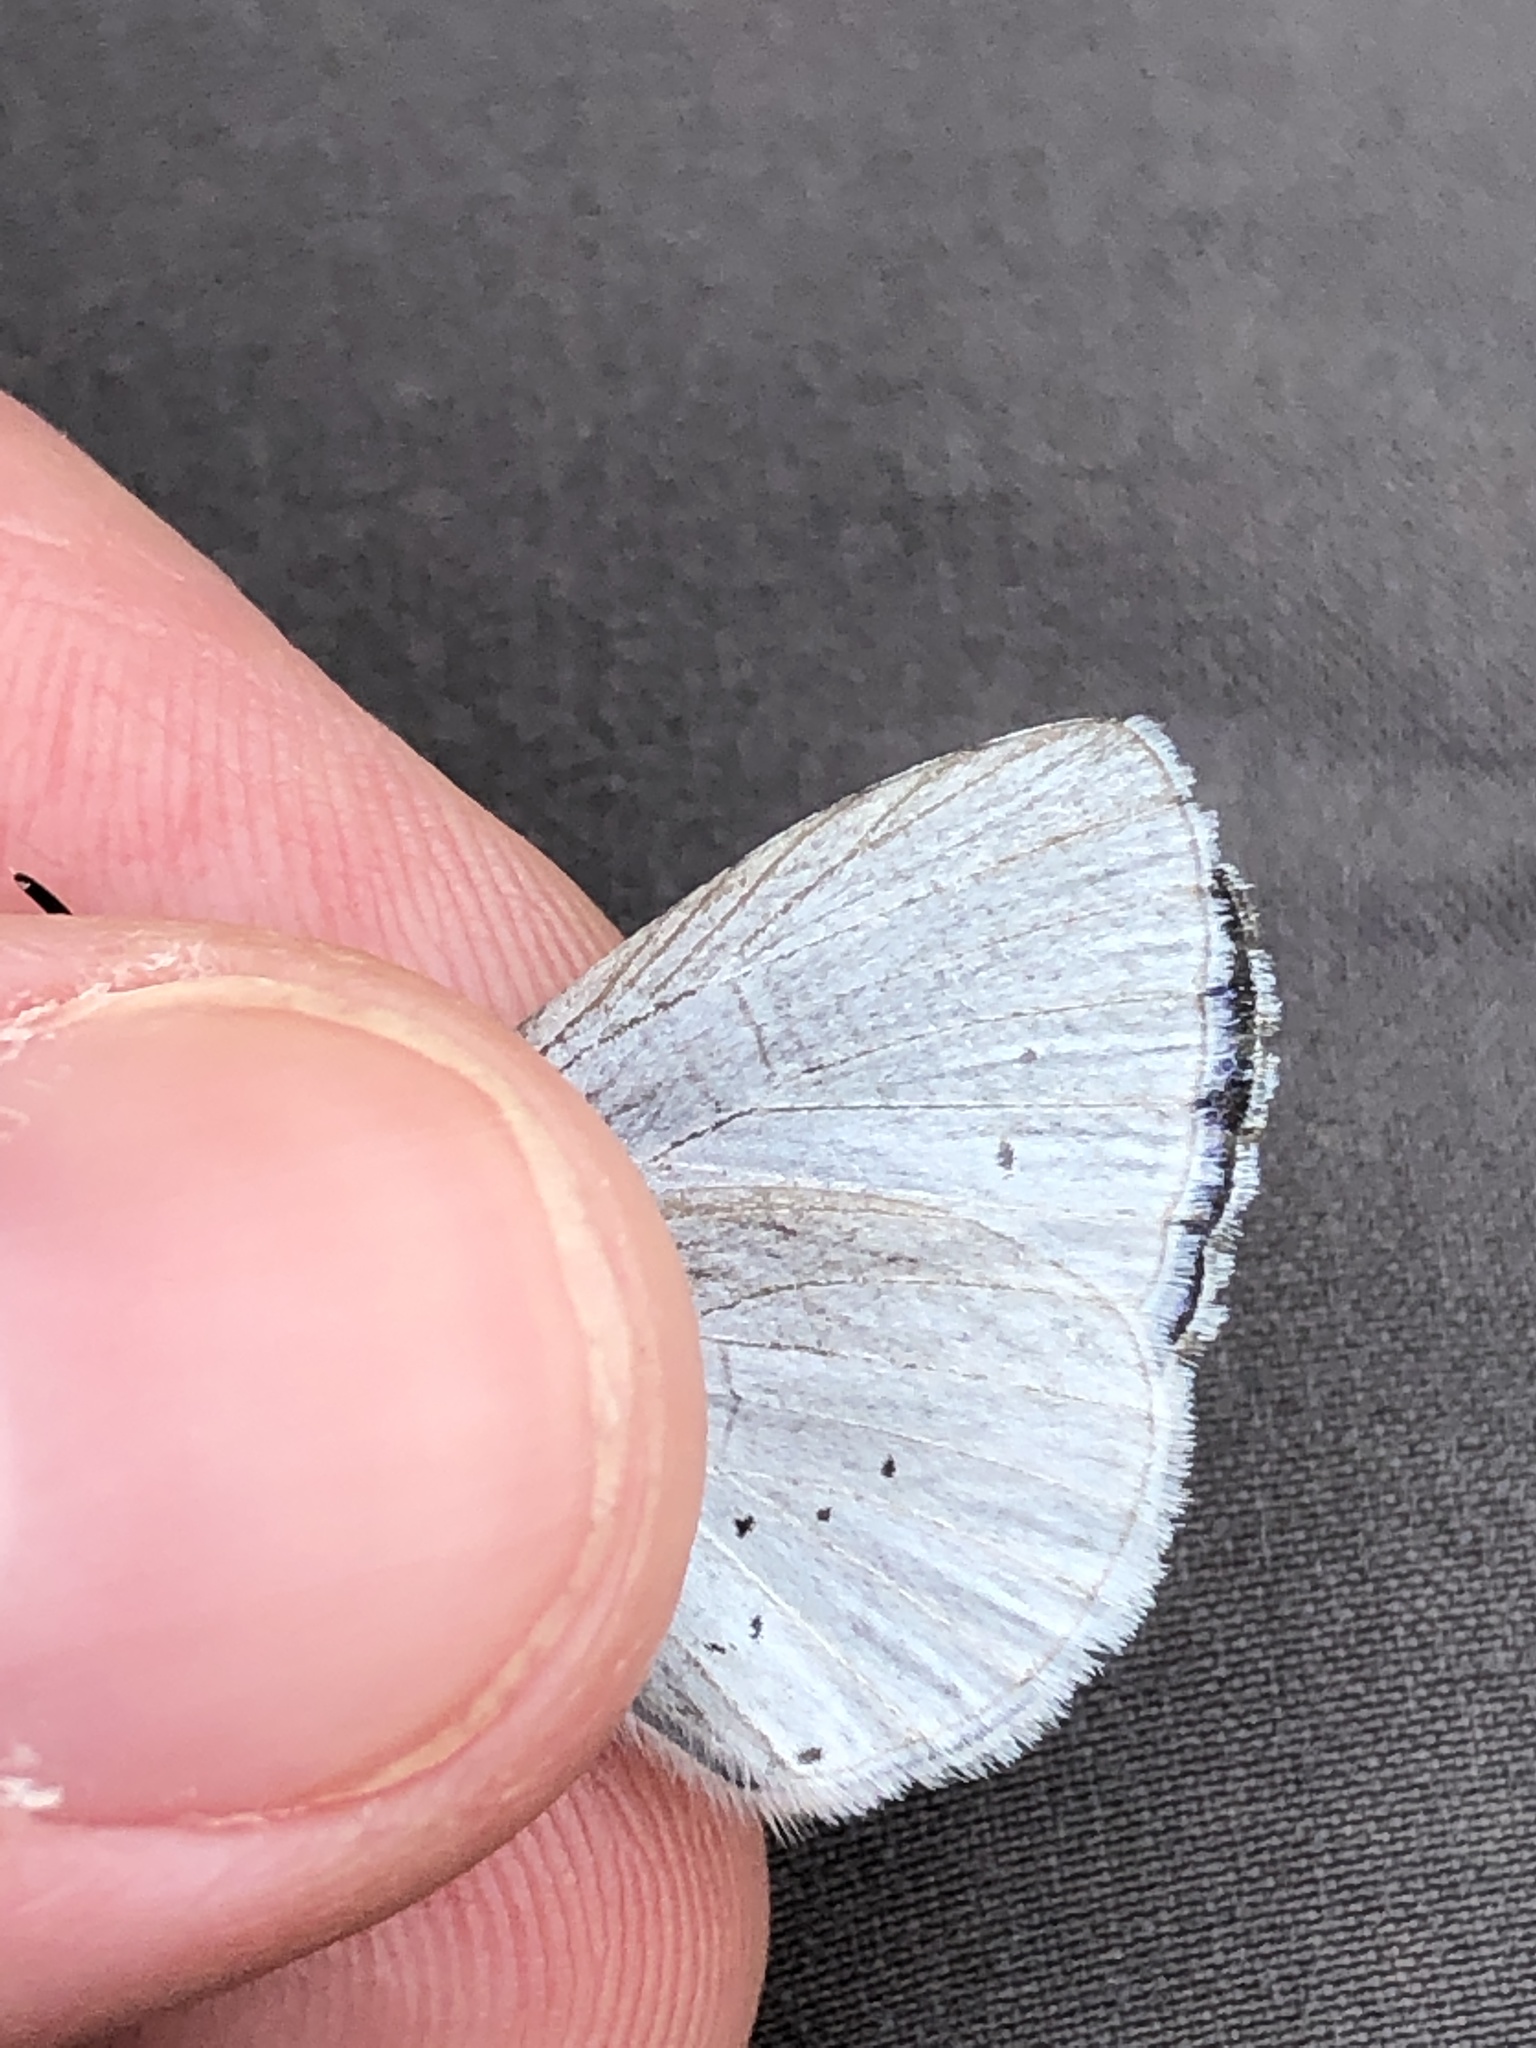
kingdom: Animalia
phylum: Arthropoda
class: Insecta
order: Lepidoptera
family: Lycaenidae
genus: Celastrina
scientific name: Celastrina argiolus
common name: Holly blue
